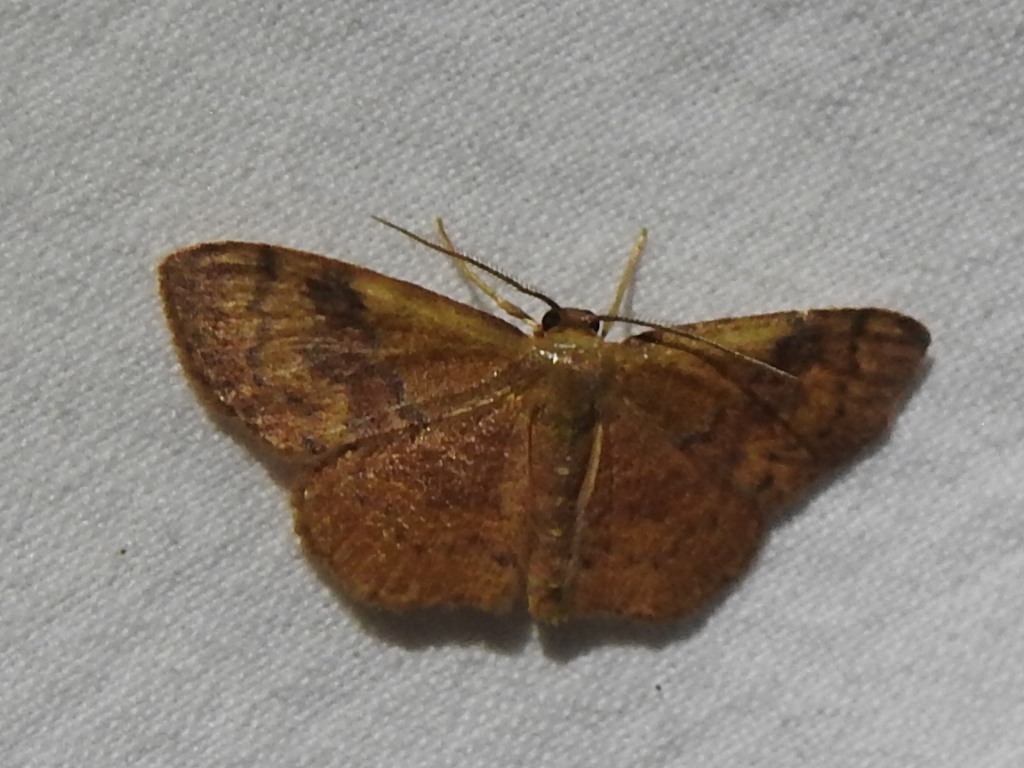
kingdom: Animalia
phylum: Arthropoda
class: Insecta
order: Lepidoptera
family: Geometridae
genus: Leptostales
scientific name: Leptostales ferruminaria
